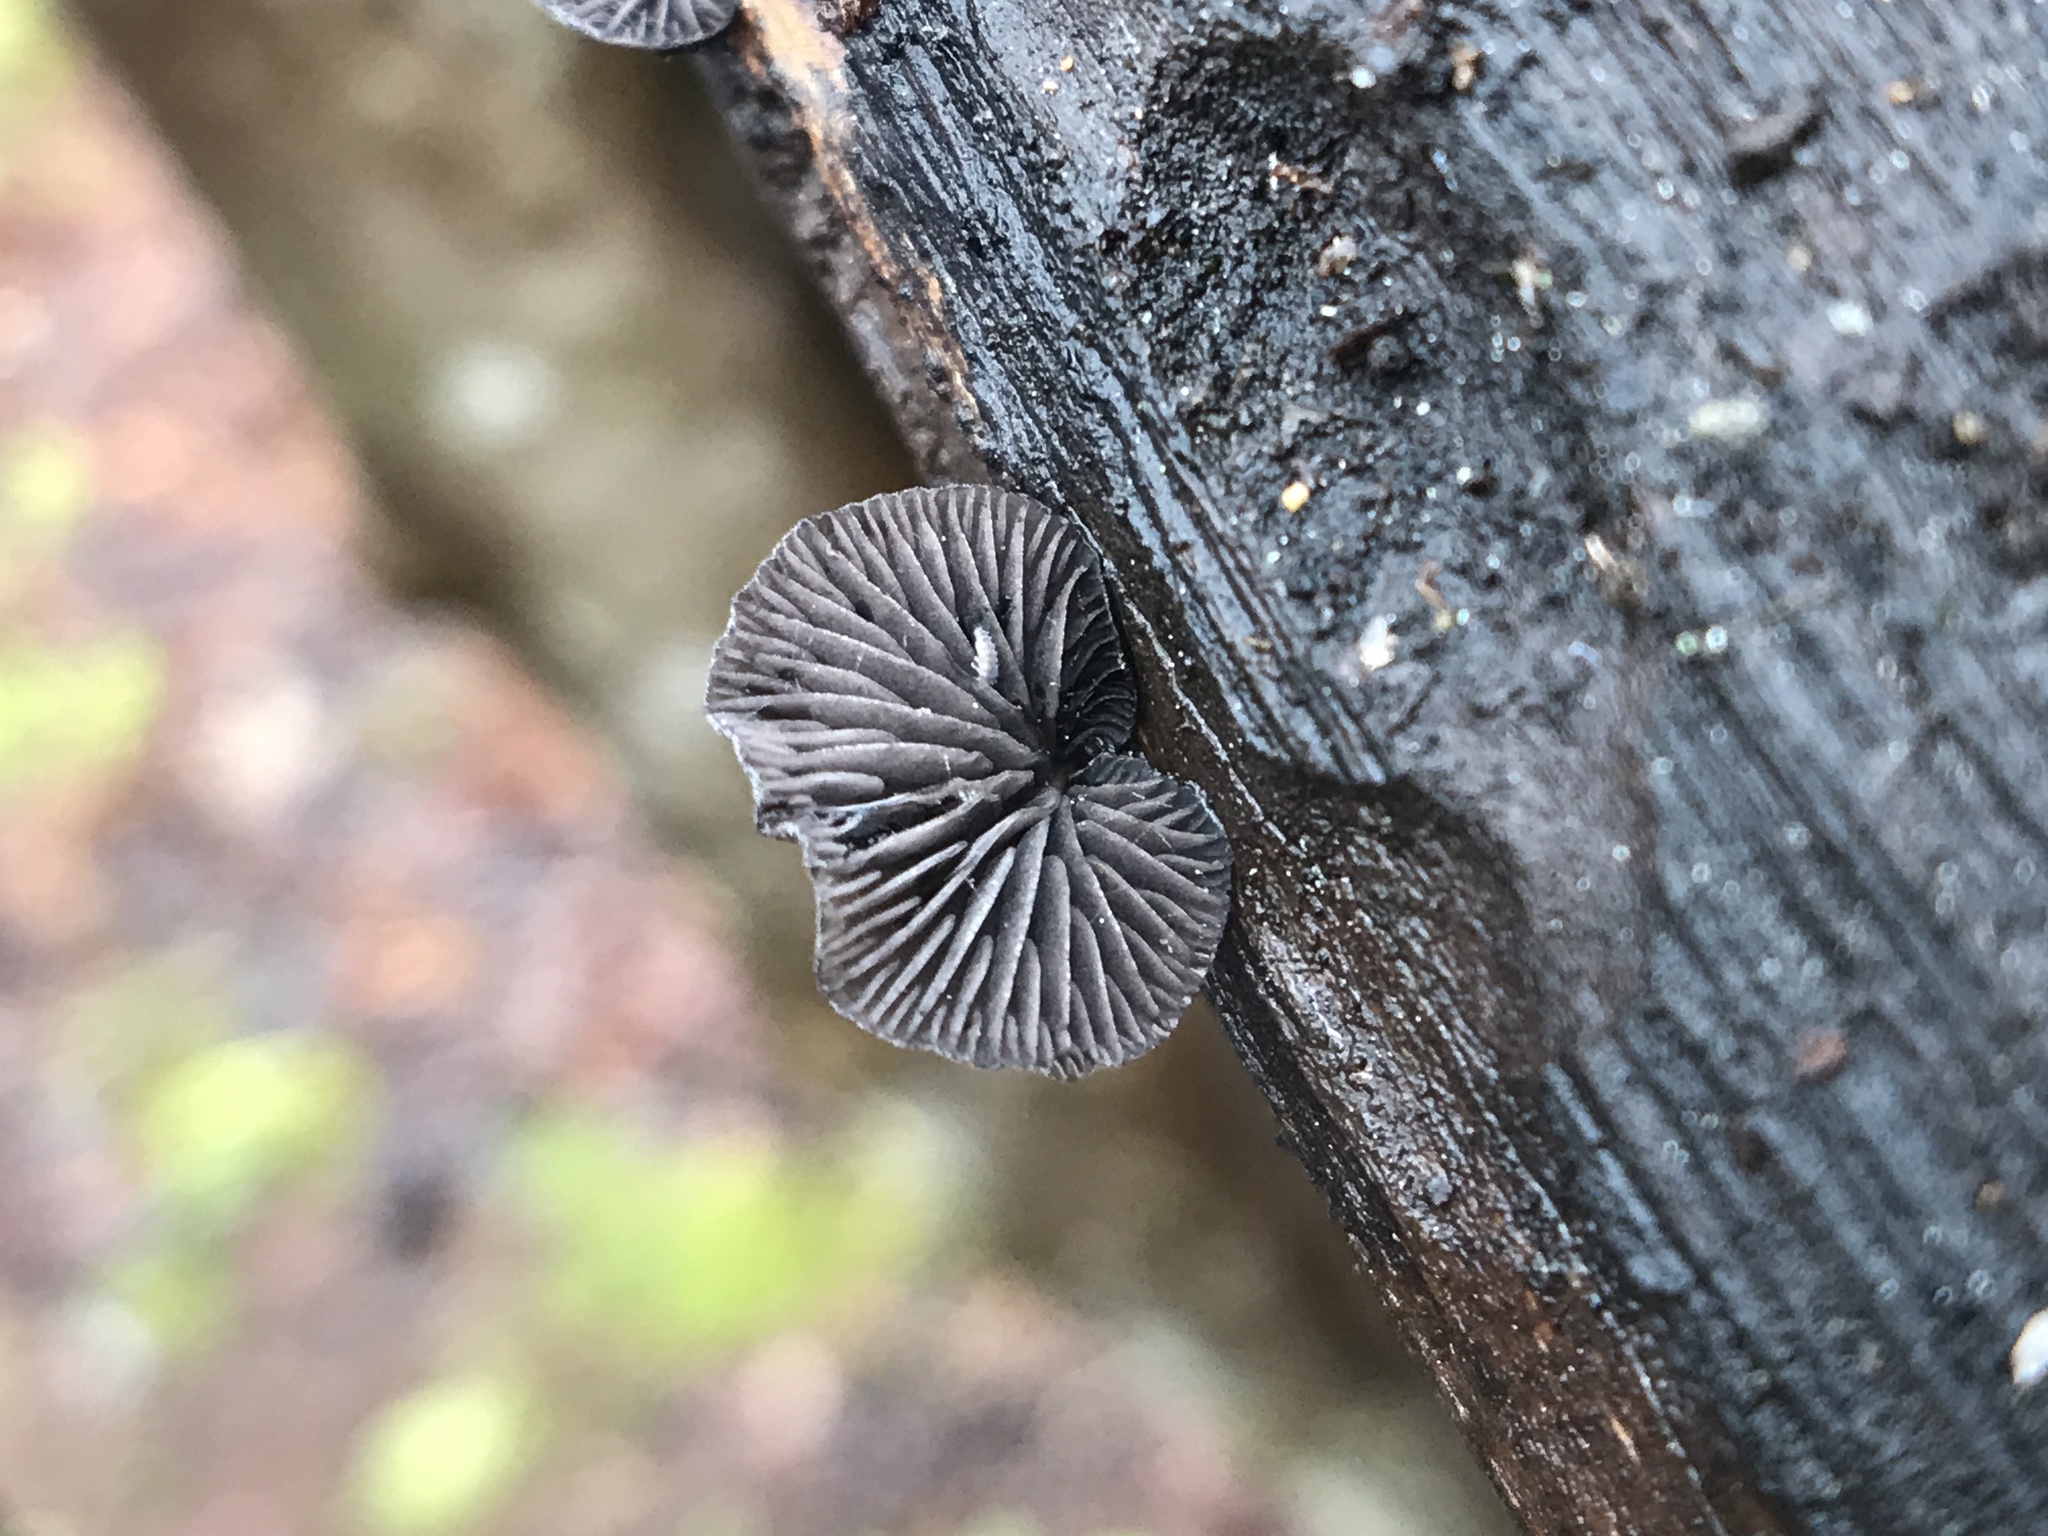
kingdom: Fungi
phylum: Basidiomycota
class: Agaricomycetes
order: Agaricales
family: Pleurotaceae
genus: Resupinatus
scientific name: Resupinatus alboniger
